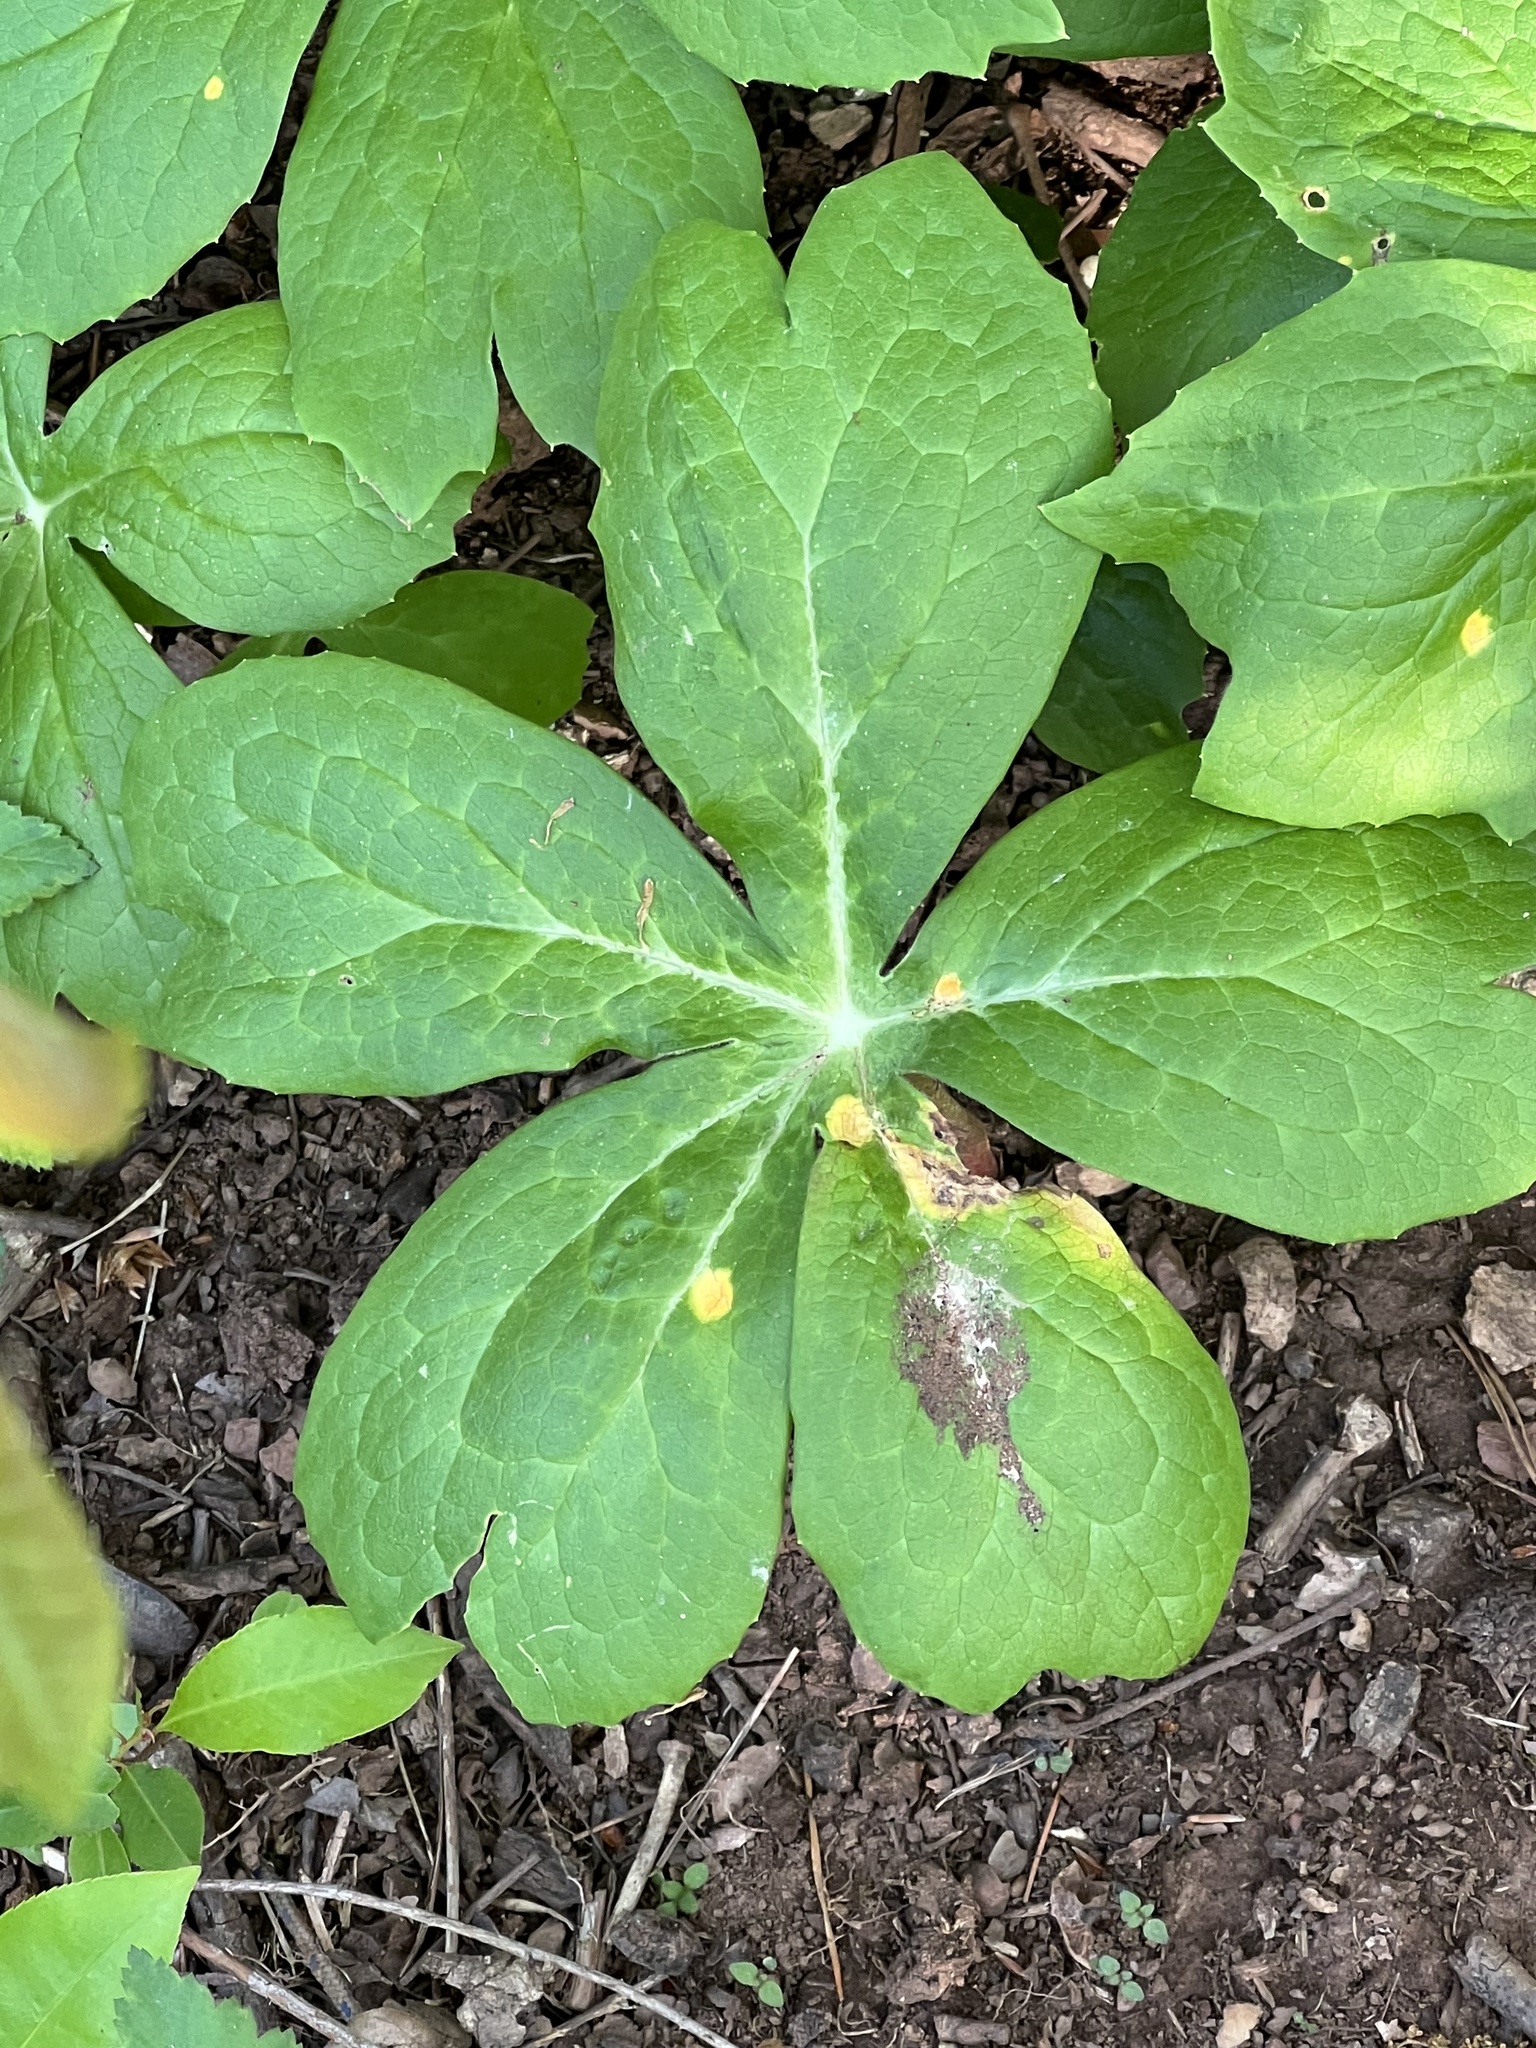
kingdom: Fungi
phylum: Basidiomycota
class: Pucciniomycetes
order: Pucciniales
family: Pucciniaceae
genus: Puccinia
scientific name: Puccinia podophylli
